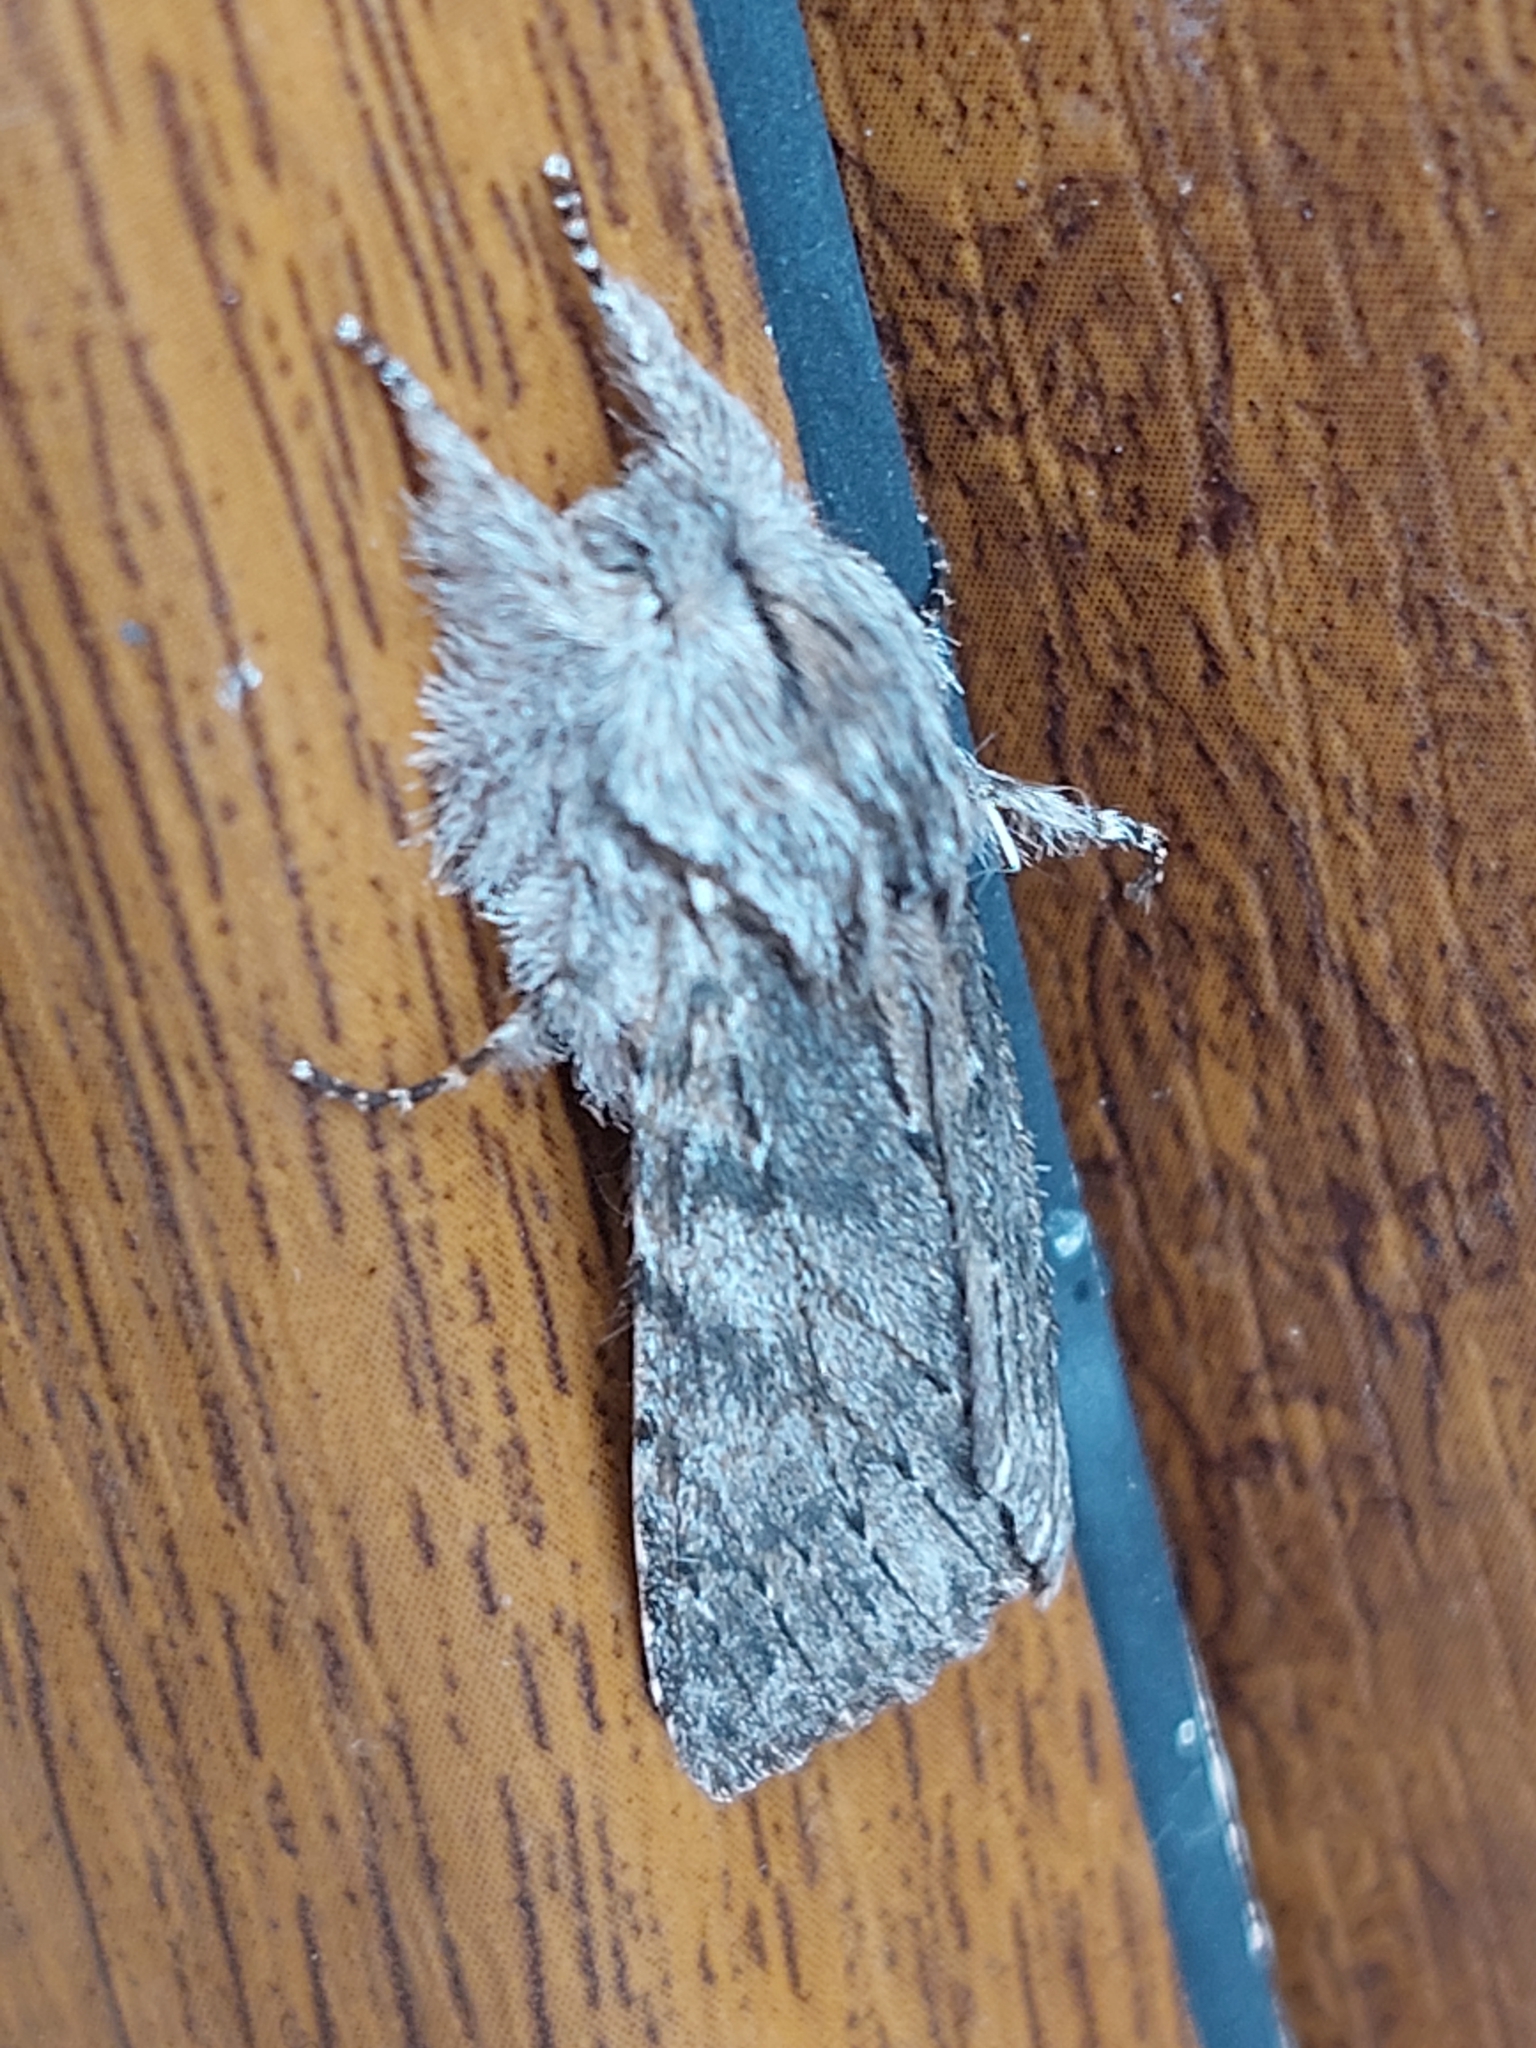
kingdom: Animalia
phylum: Arthropoda
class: Insecta
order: Lepidoptera
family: Notodontidae
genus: Dicranura
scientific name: Dicranura ulmi
